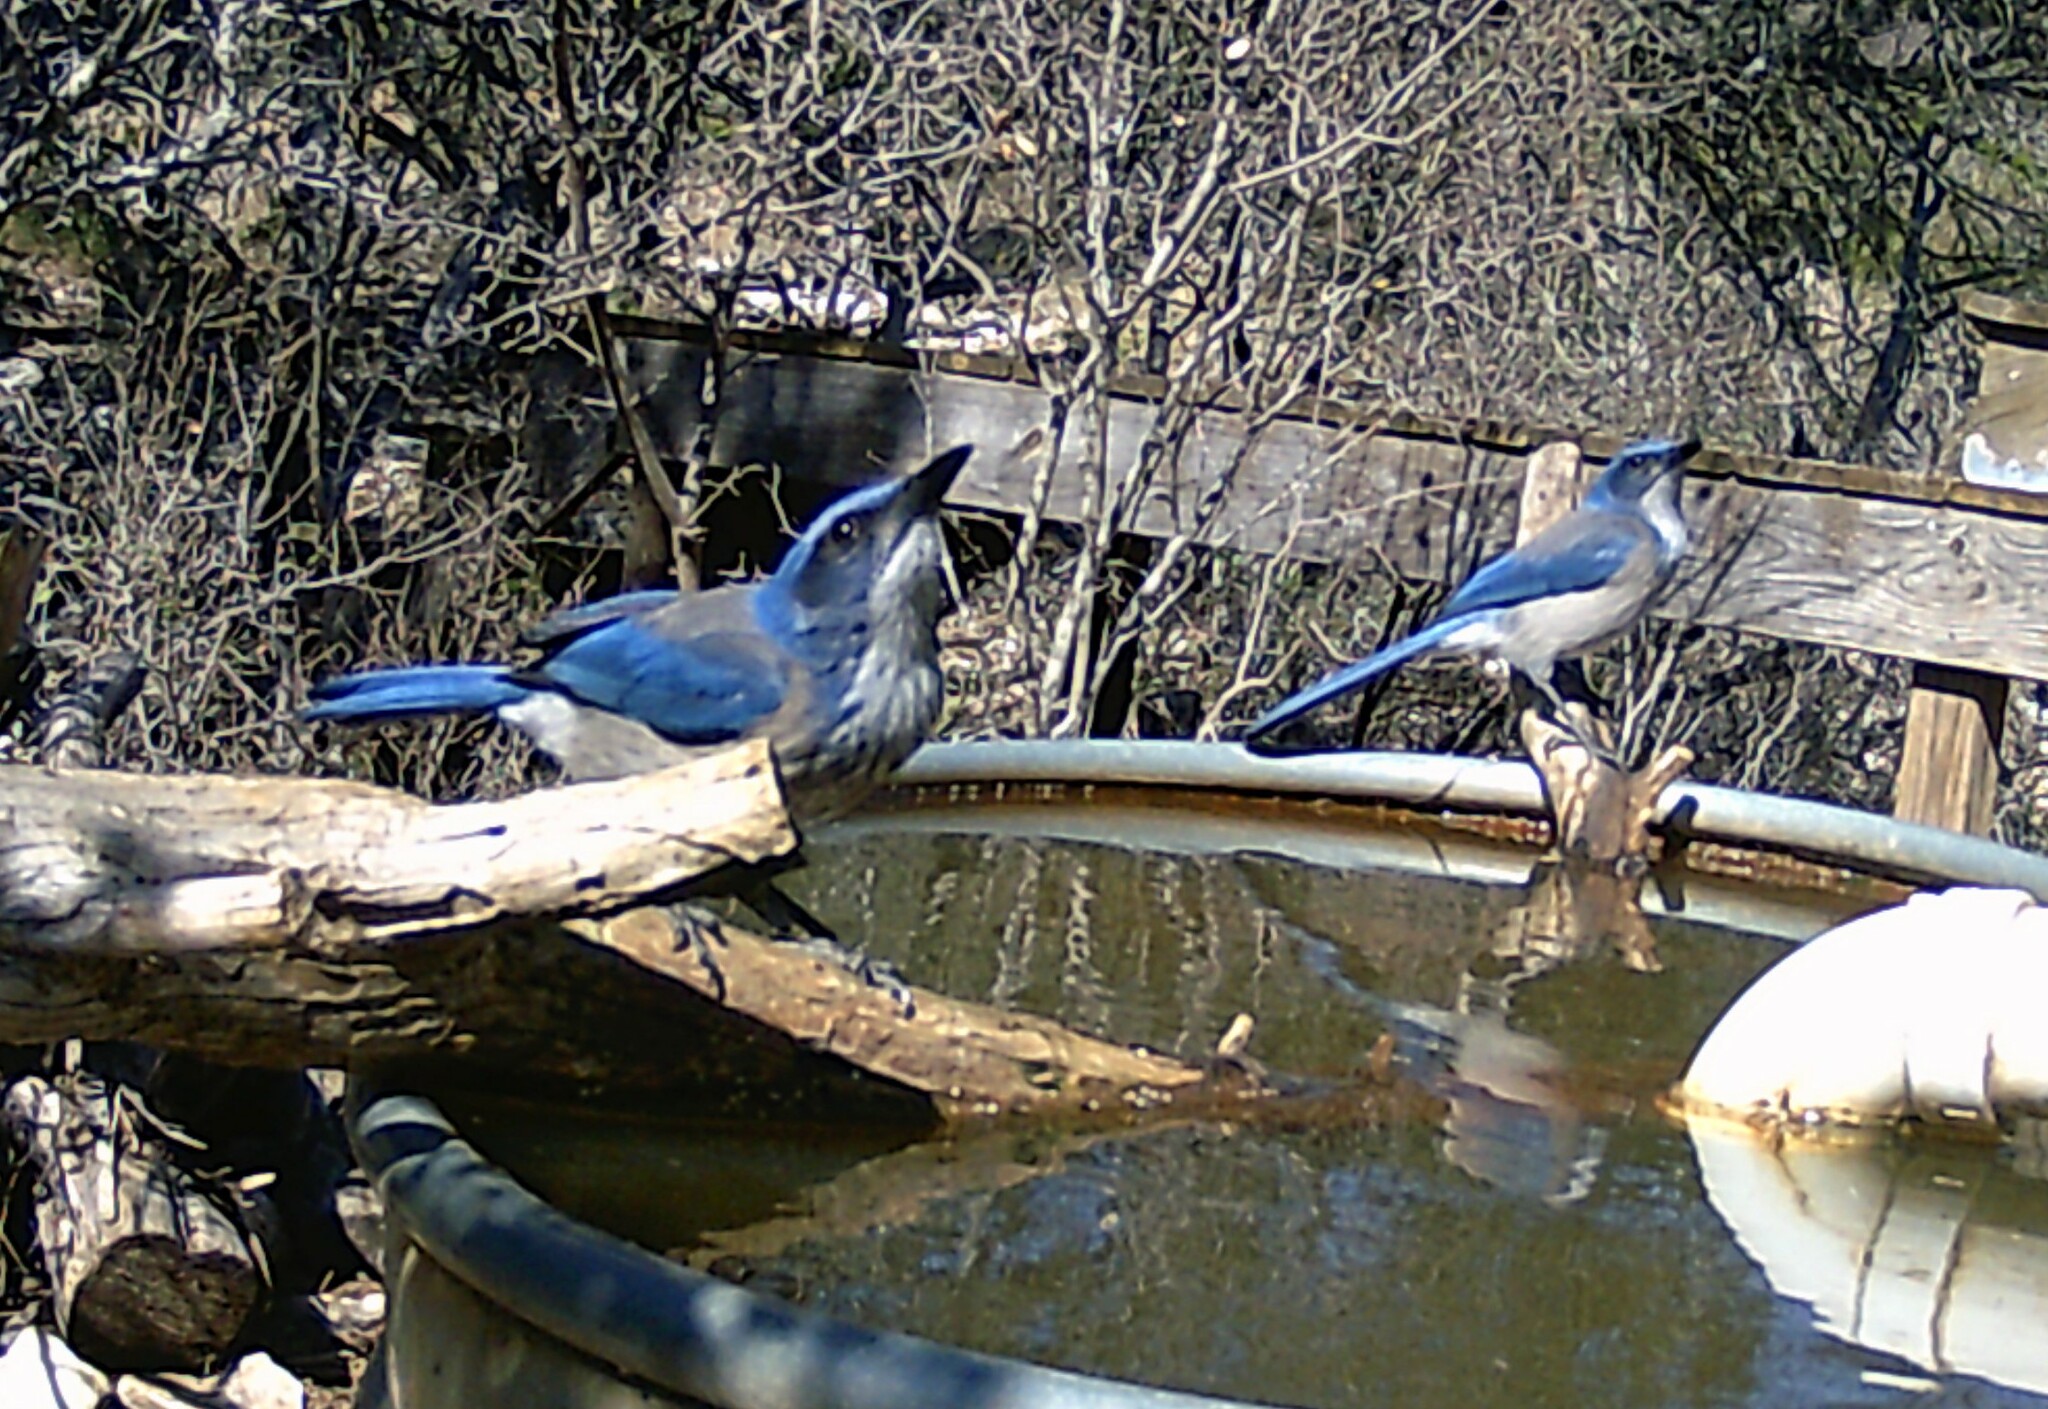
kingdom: Animalia
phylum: Chordata
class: Aves
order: Passeriformes
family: Corvidae
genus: Aphelocoma
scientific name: Aphelocoma woodhouseii
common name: Woodhouse's scrub-jay
